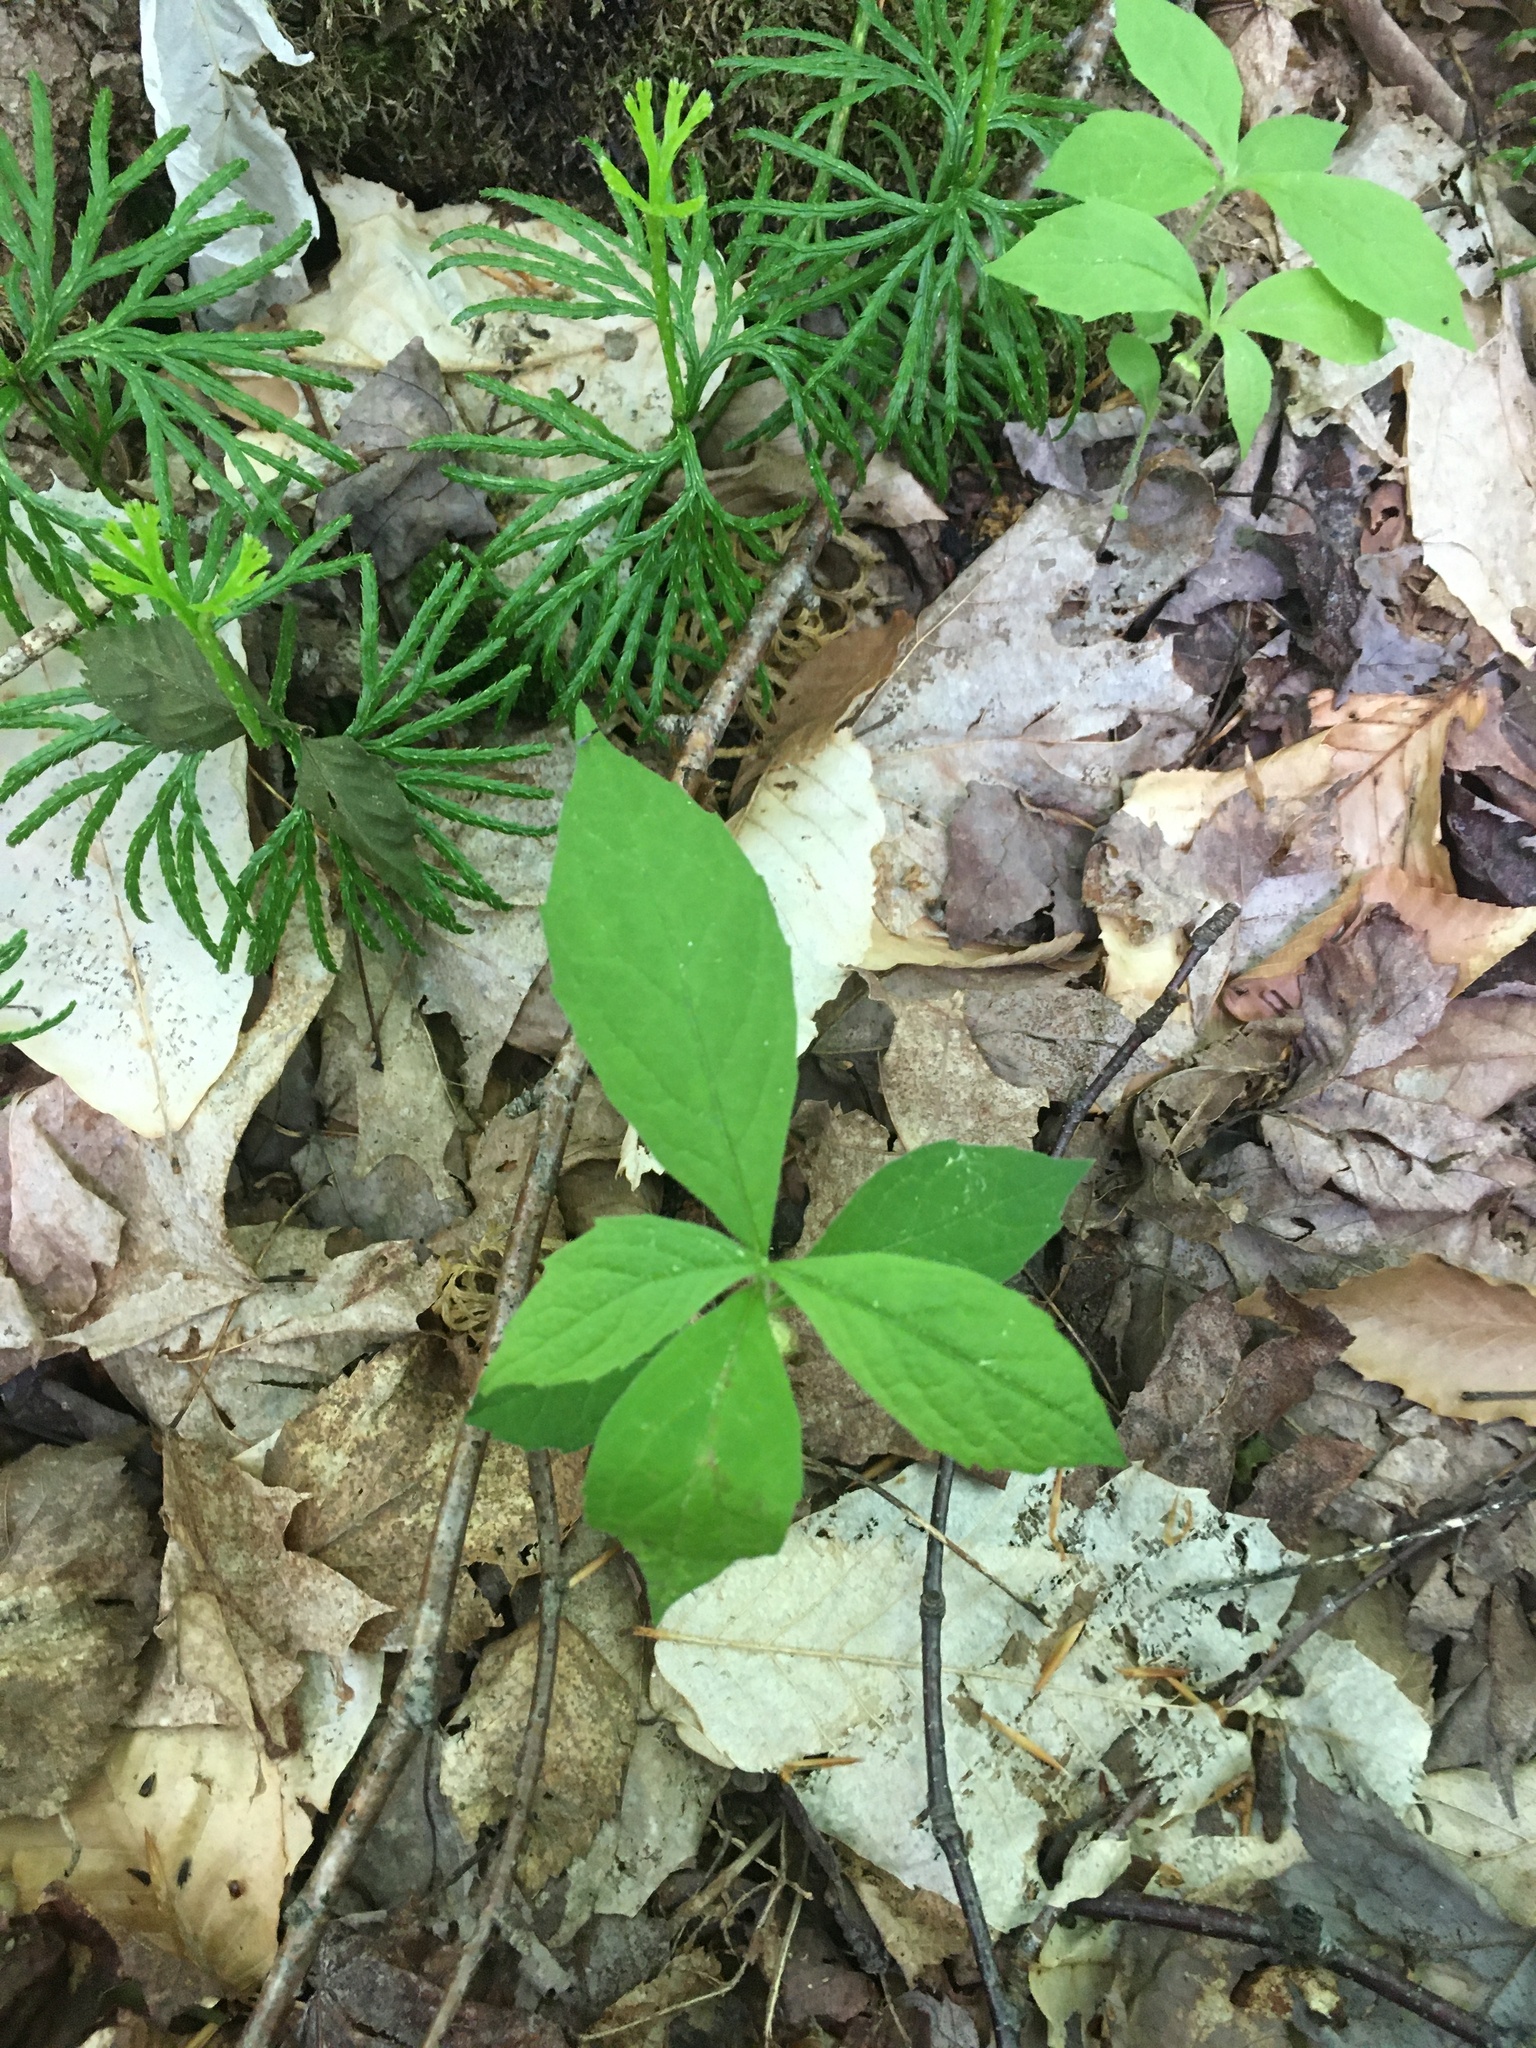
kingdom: Plantae
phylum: Tracheophyta
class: Magnoliopsida
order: Asterales
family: Asteraceae
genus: Oclemena
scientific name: Oclemena acuminata
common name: Mountain aster
